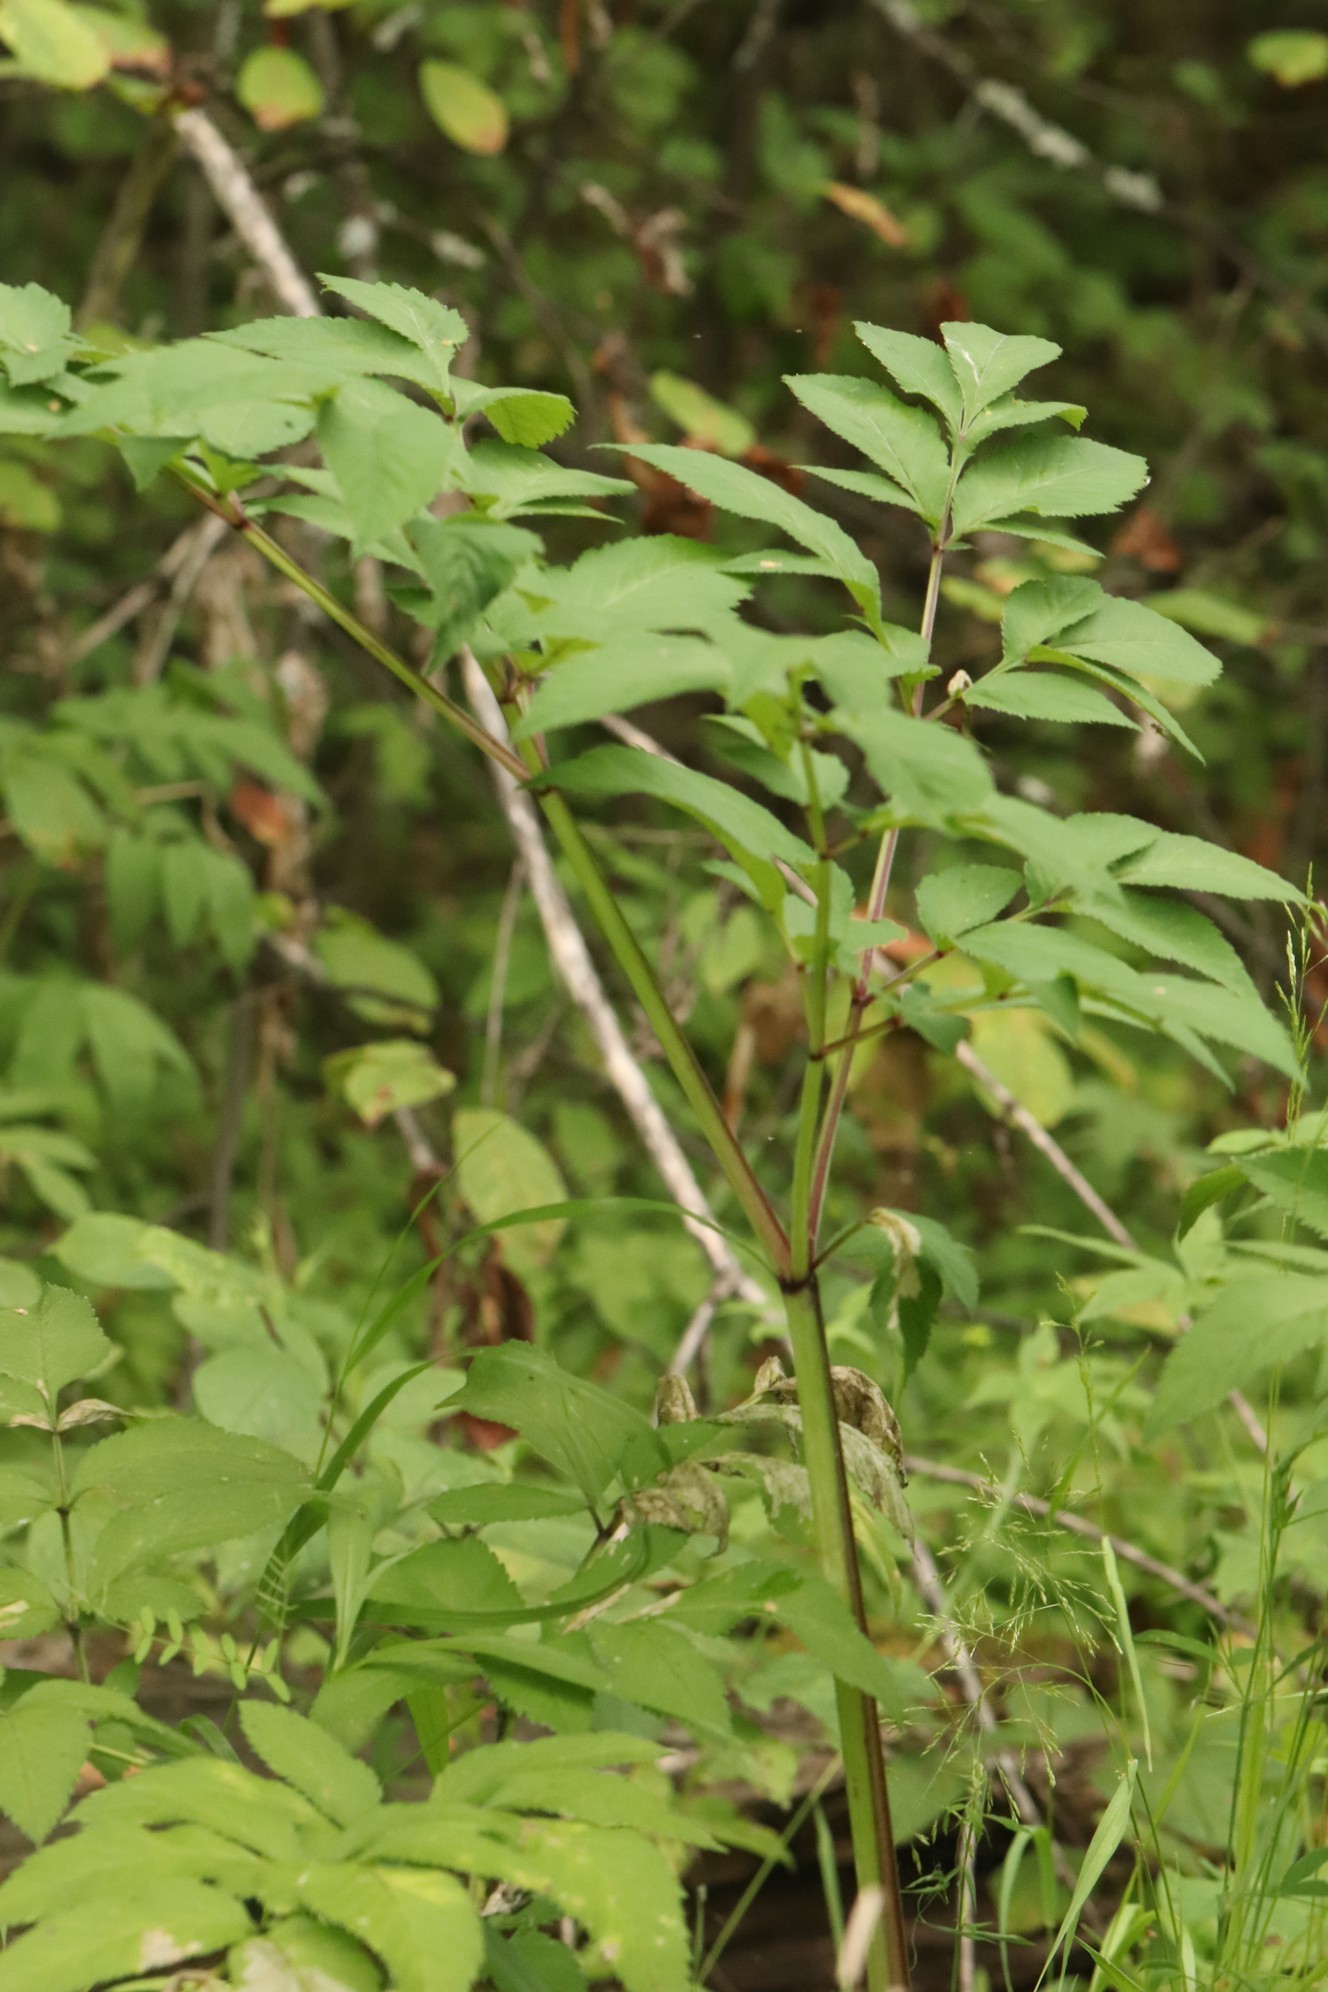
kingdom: Plantae
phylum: Tracheophyta
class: Magnoliopsida
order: Apiales
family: Apiaceae
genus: Angelica
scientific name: Angelica sylvestris
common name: Wild angelica
